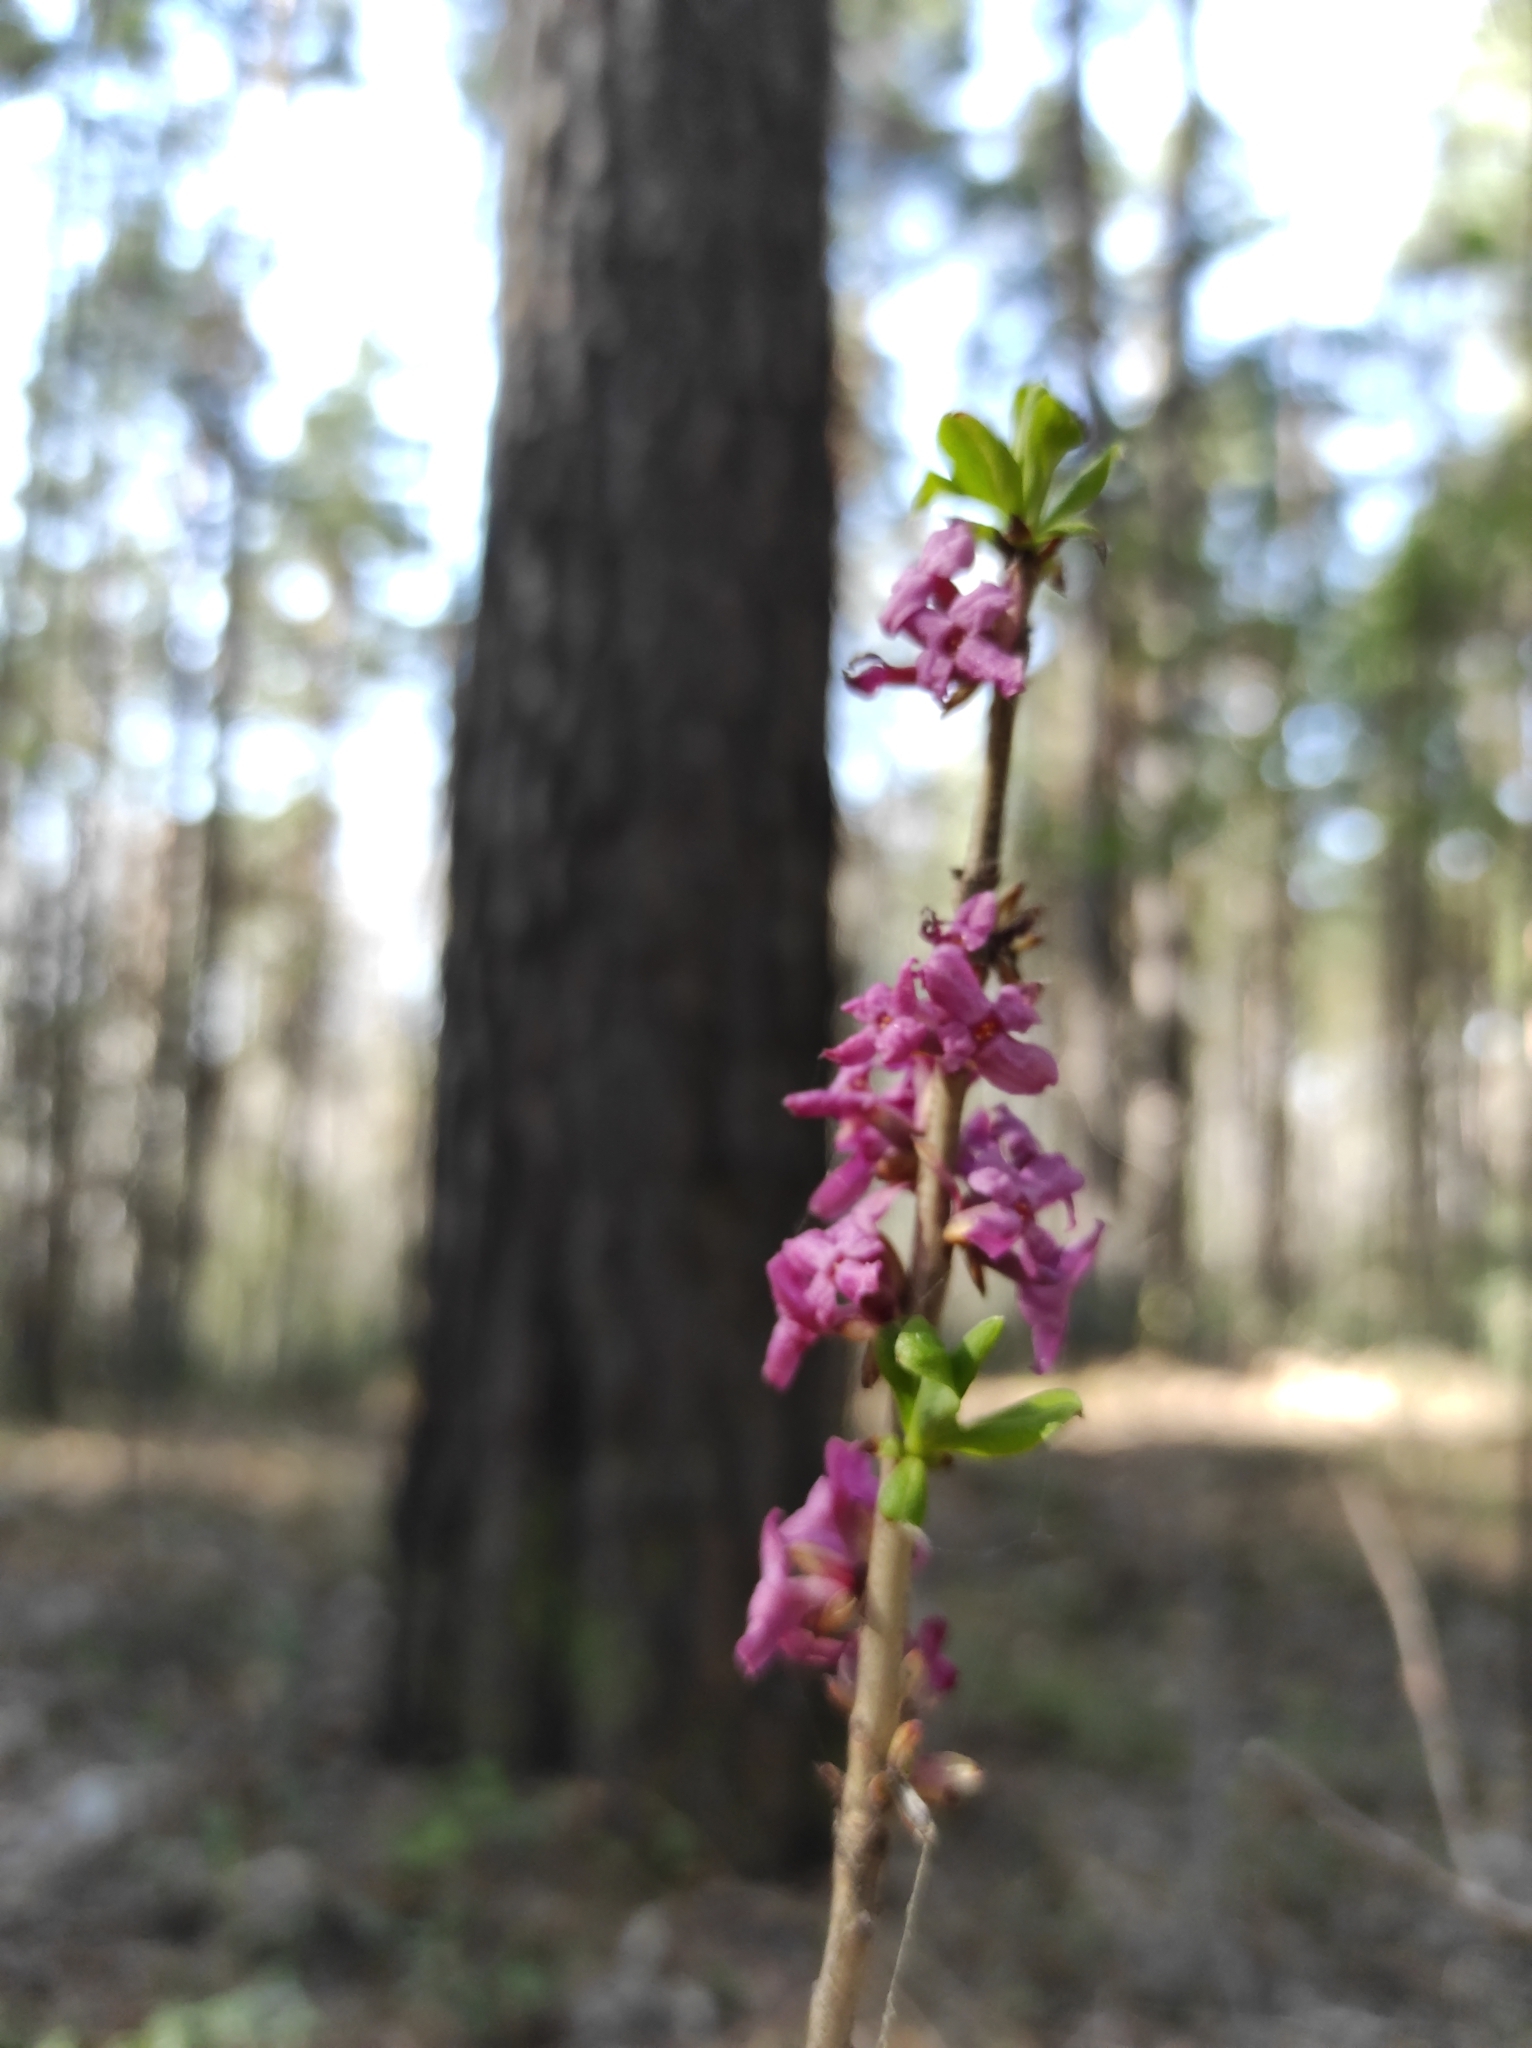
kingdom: Plantae
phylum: Tracheophyta
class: Magnoliopsida
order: Malvales
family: Thymelaeaceae
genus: Daphne
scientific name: Daphne mezereum
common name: Mezereon
